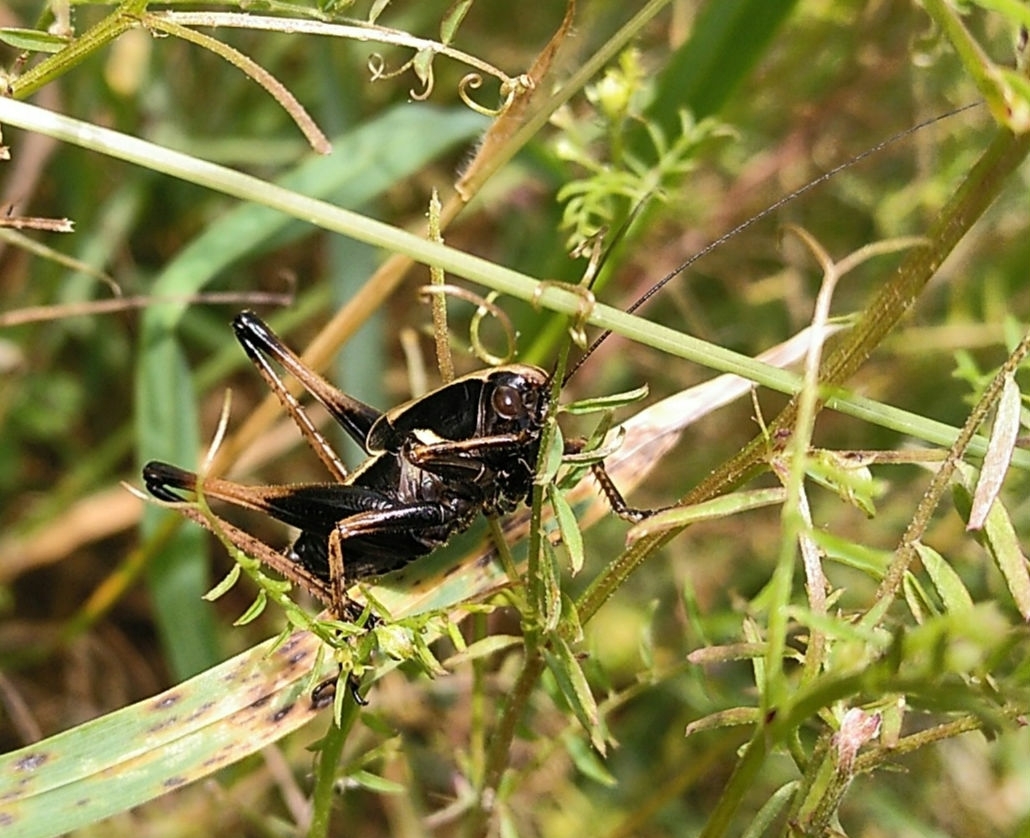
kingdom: Animalia
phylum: Arthropoda
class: Insecta
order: Orthoptera
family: Tettigoniidae
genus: Zeuneriana
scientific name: Zeuneriana abbreviata
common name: Basque bush-cricket
